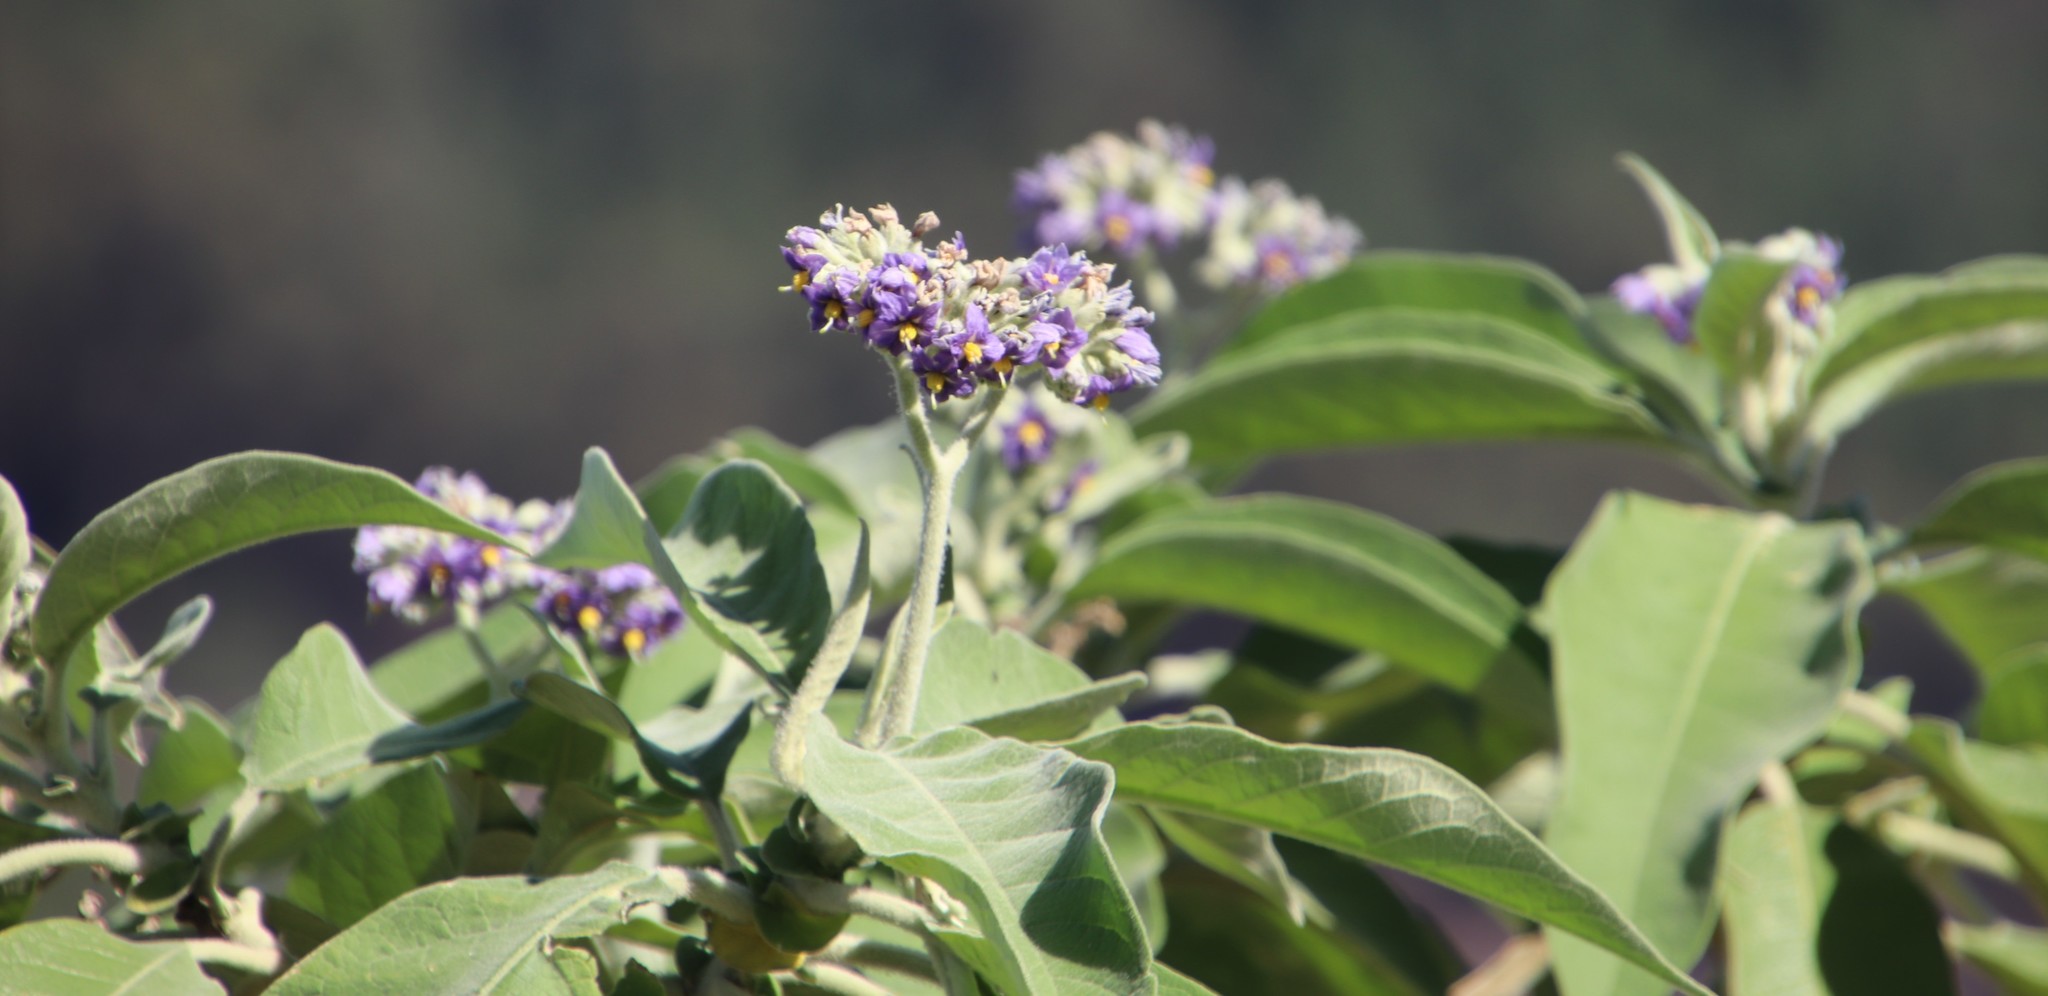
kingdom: Plantae
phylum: Tracheophyta
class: Magnoliopsida
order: Solanales
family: Solanaceae
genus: Solanum
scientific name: Solanum mauritianum
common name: Earleaf nightshade
